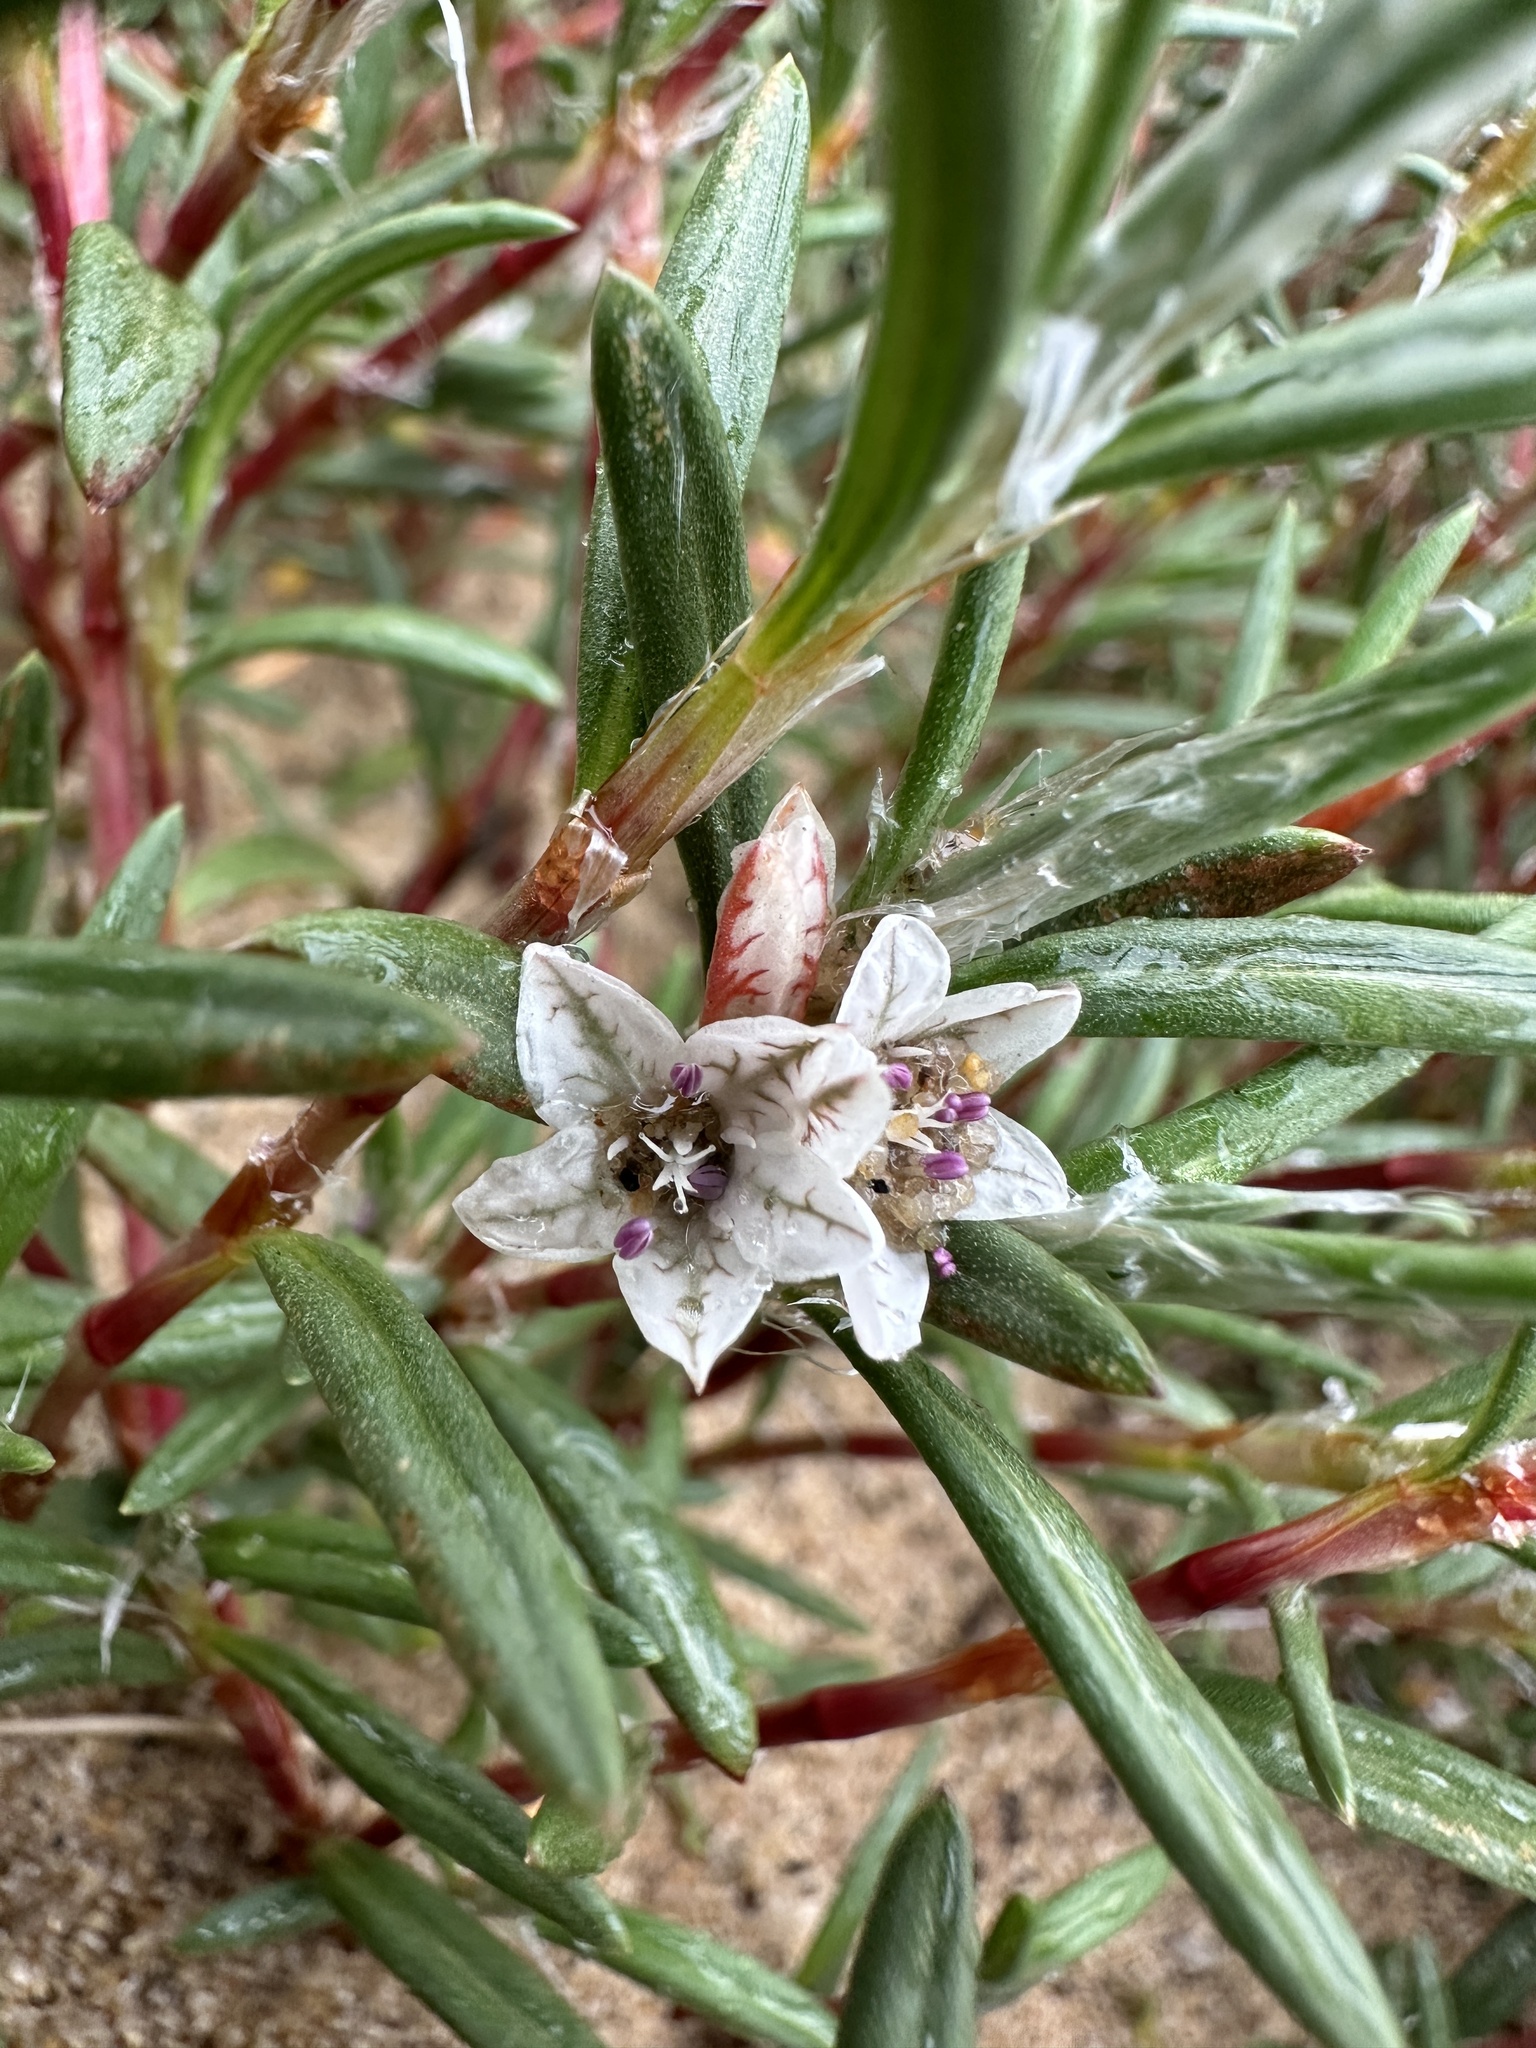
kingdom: Plantae
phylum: Tracheophyta
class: Magnoliopsida
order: Caryophyllales
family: Polygonaceae
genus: Polygonum
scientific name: Polygonum paronychia
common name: Dune knotweed
